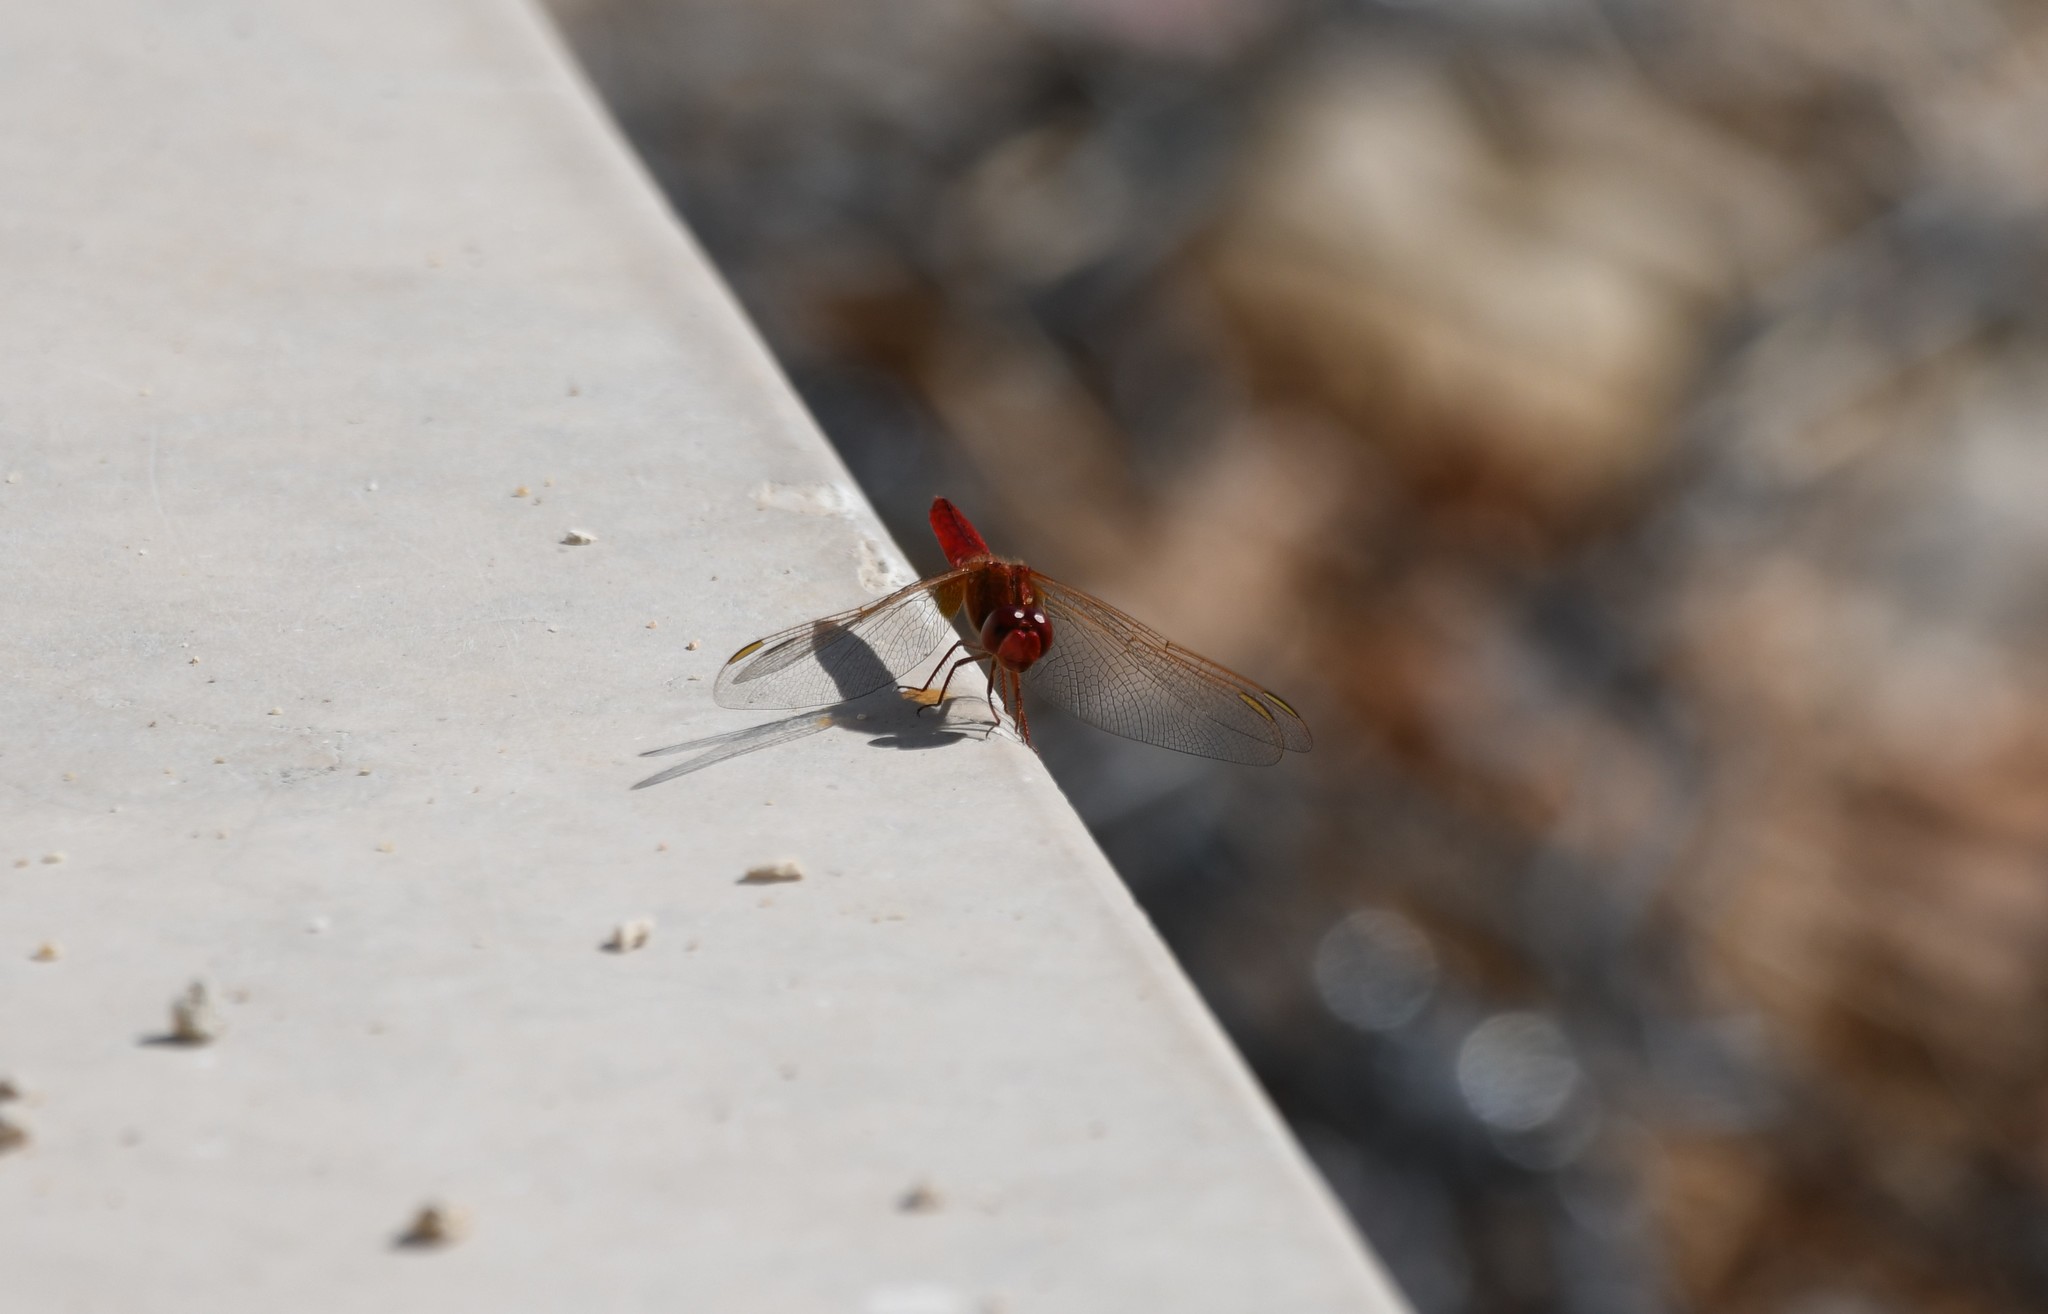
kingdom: Animalia
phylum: Arthropoda
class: Insecta
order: Odonata
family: Libellulidae
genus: Crocothemis
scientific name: Crocothemis erythraea
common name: Scarlet dragonfly
